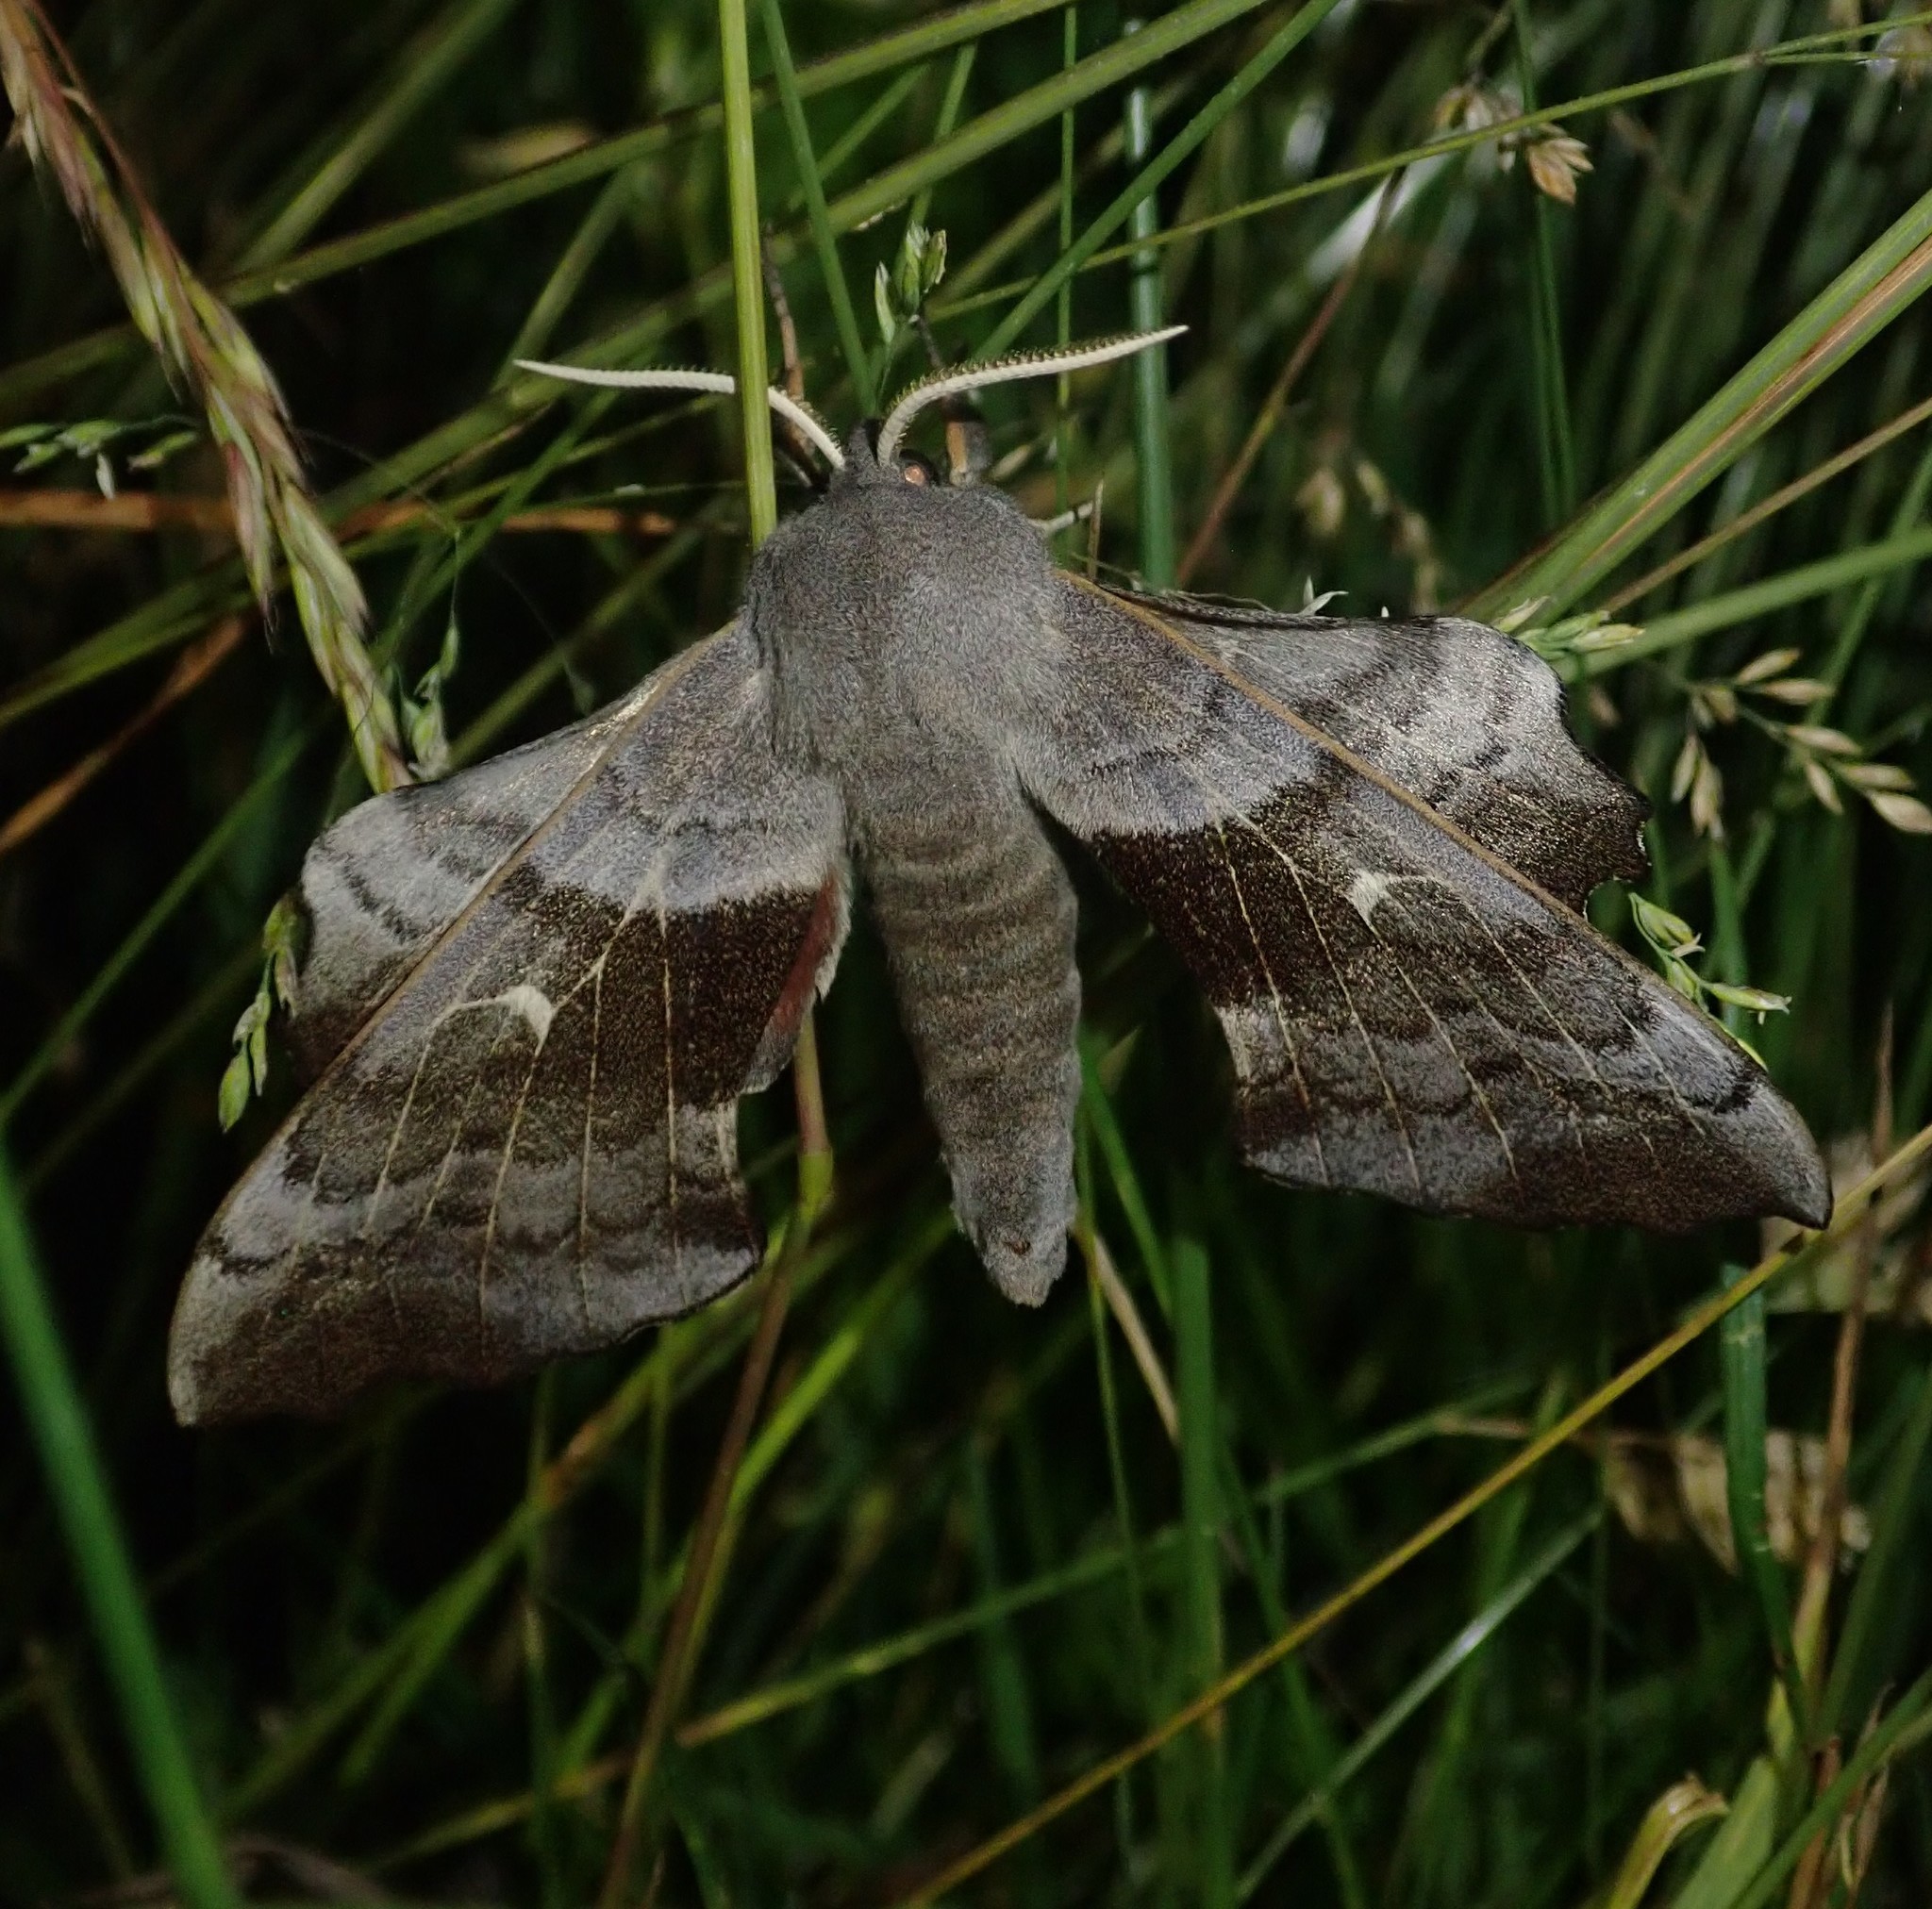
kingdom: Animalia
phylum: Arthropoda
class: Insecta
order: Lepidoptera
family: Sphingidae
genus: Laothoe
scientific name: Laothoe populi
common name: Poplar hawk-moth
